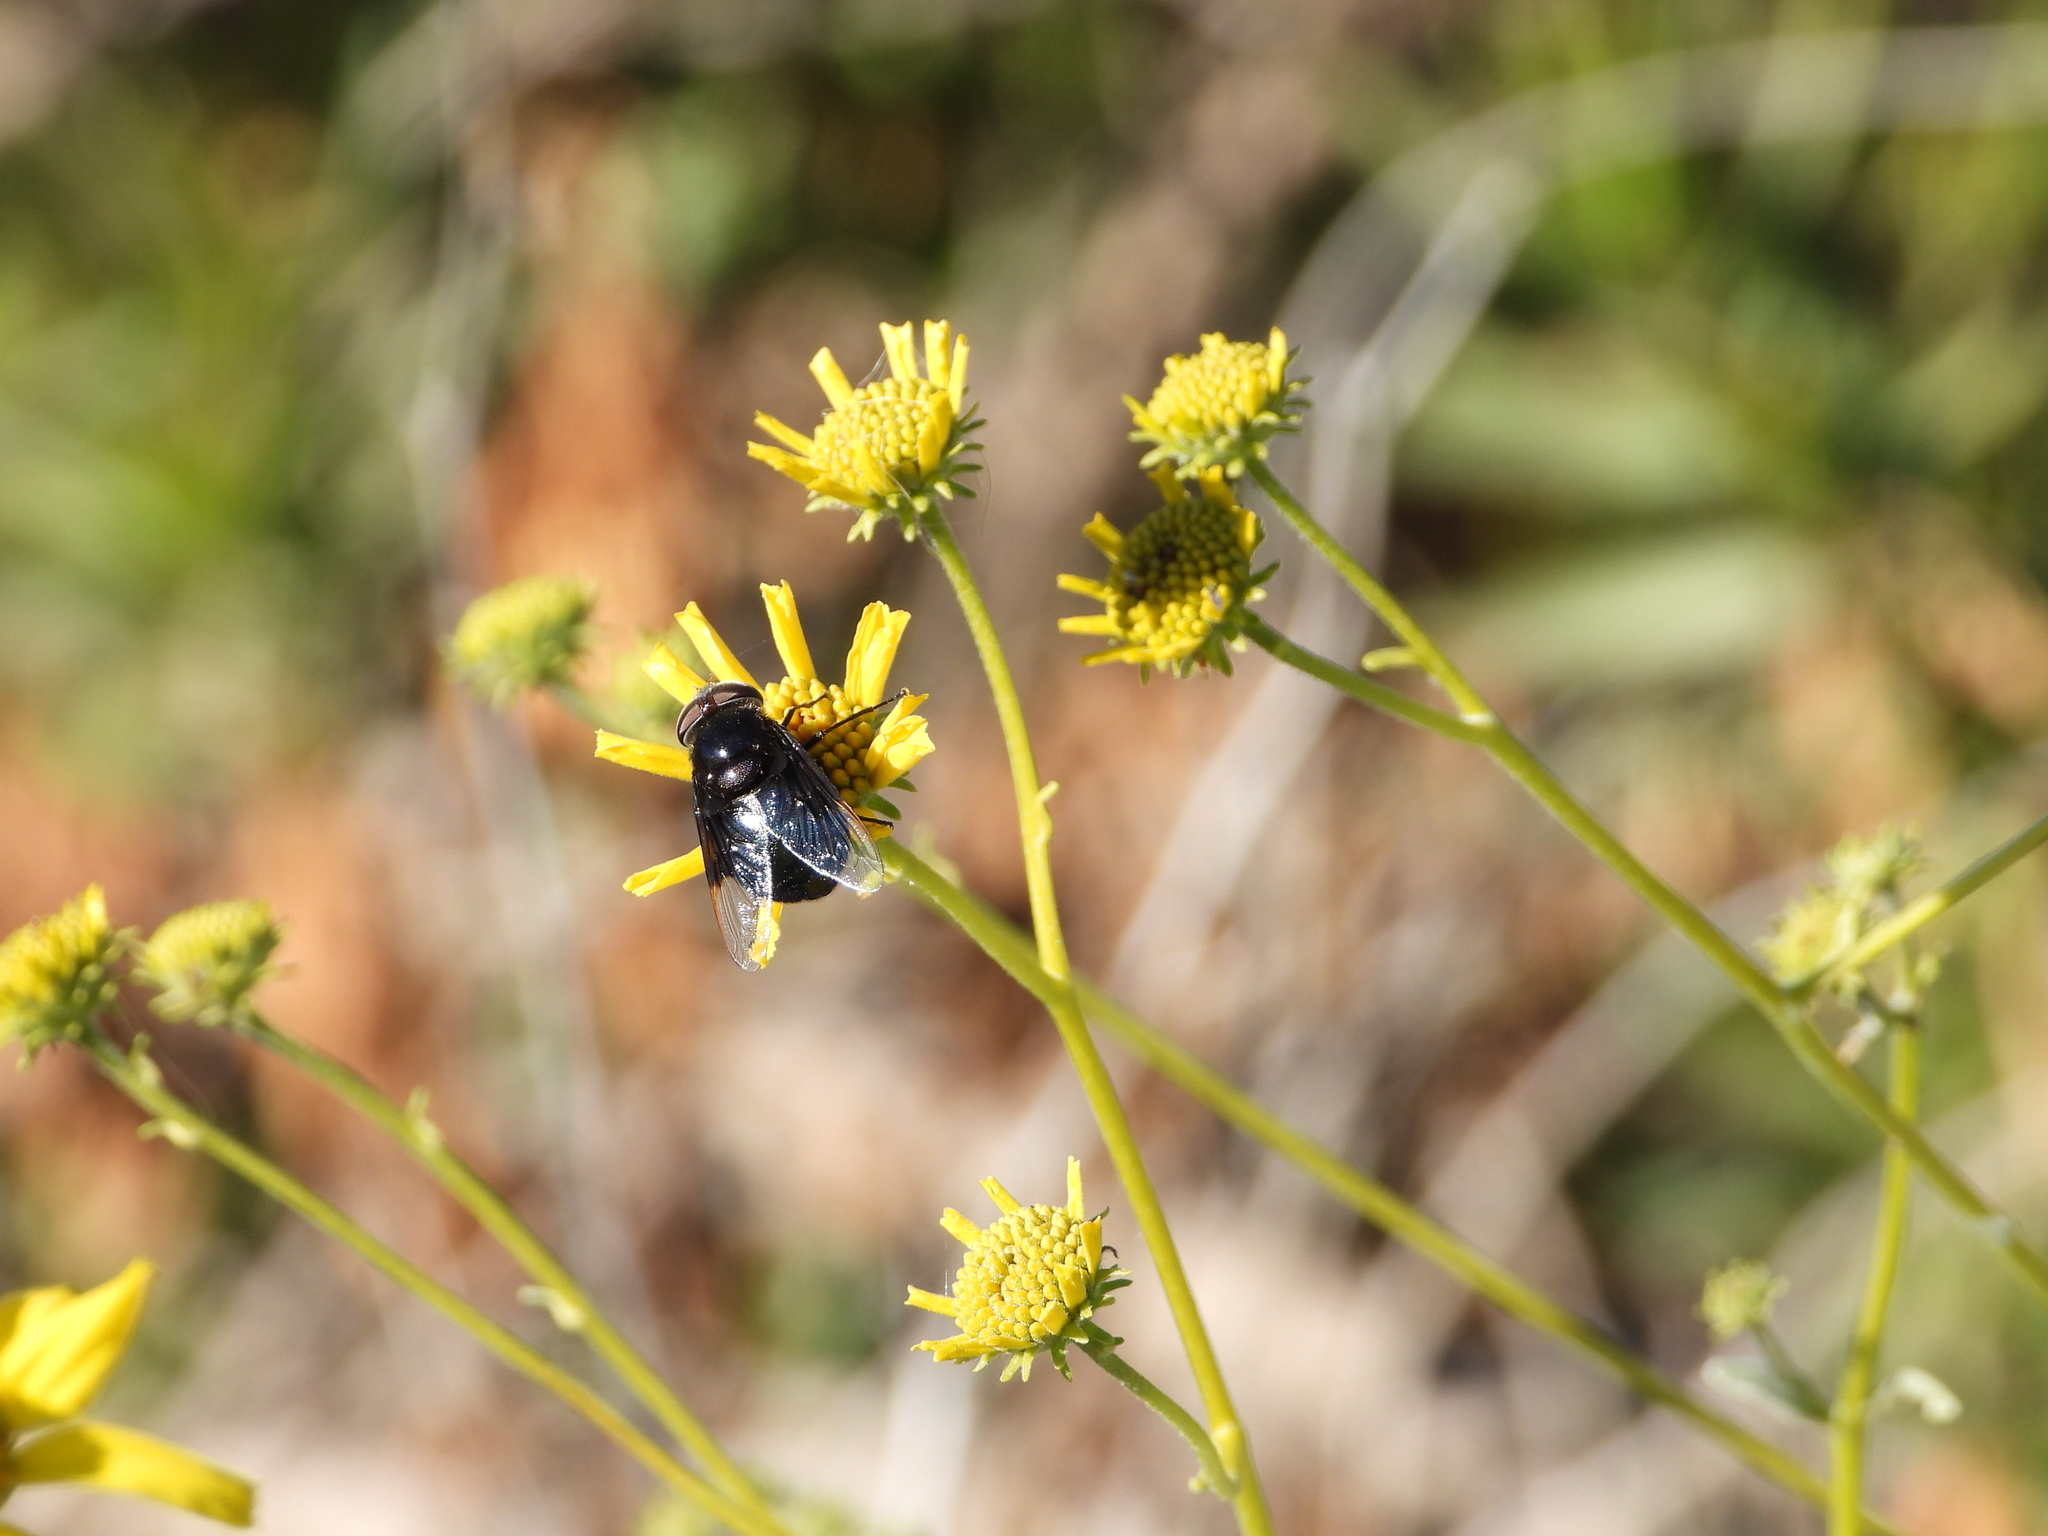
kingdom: Animalia
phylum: Arthropoda
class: Insecta
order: Diptera
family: Syrphidae
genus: Copestylum
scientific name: Copestylum mexicanum
